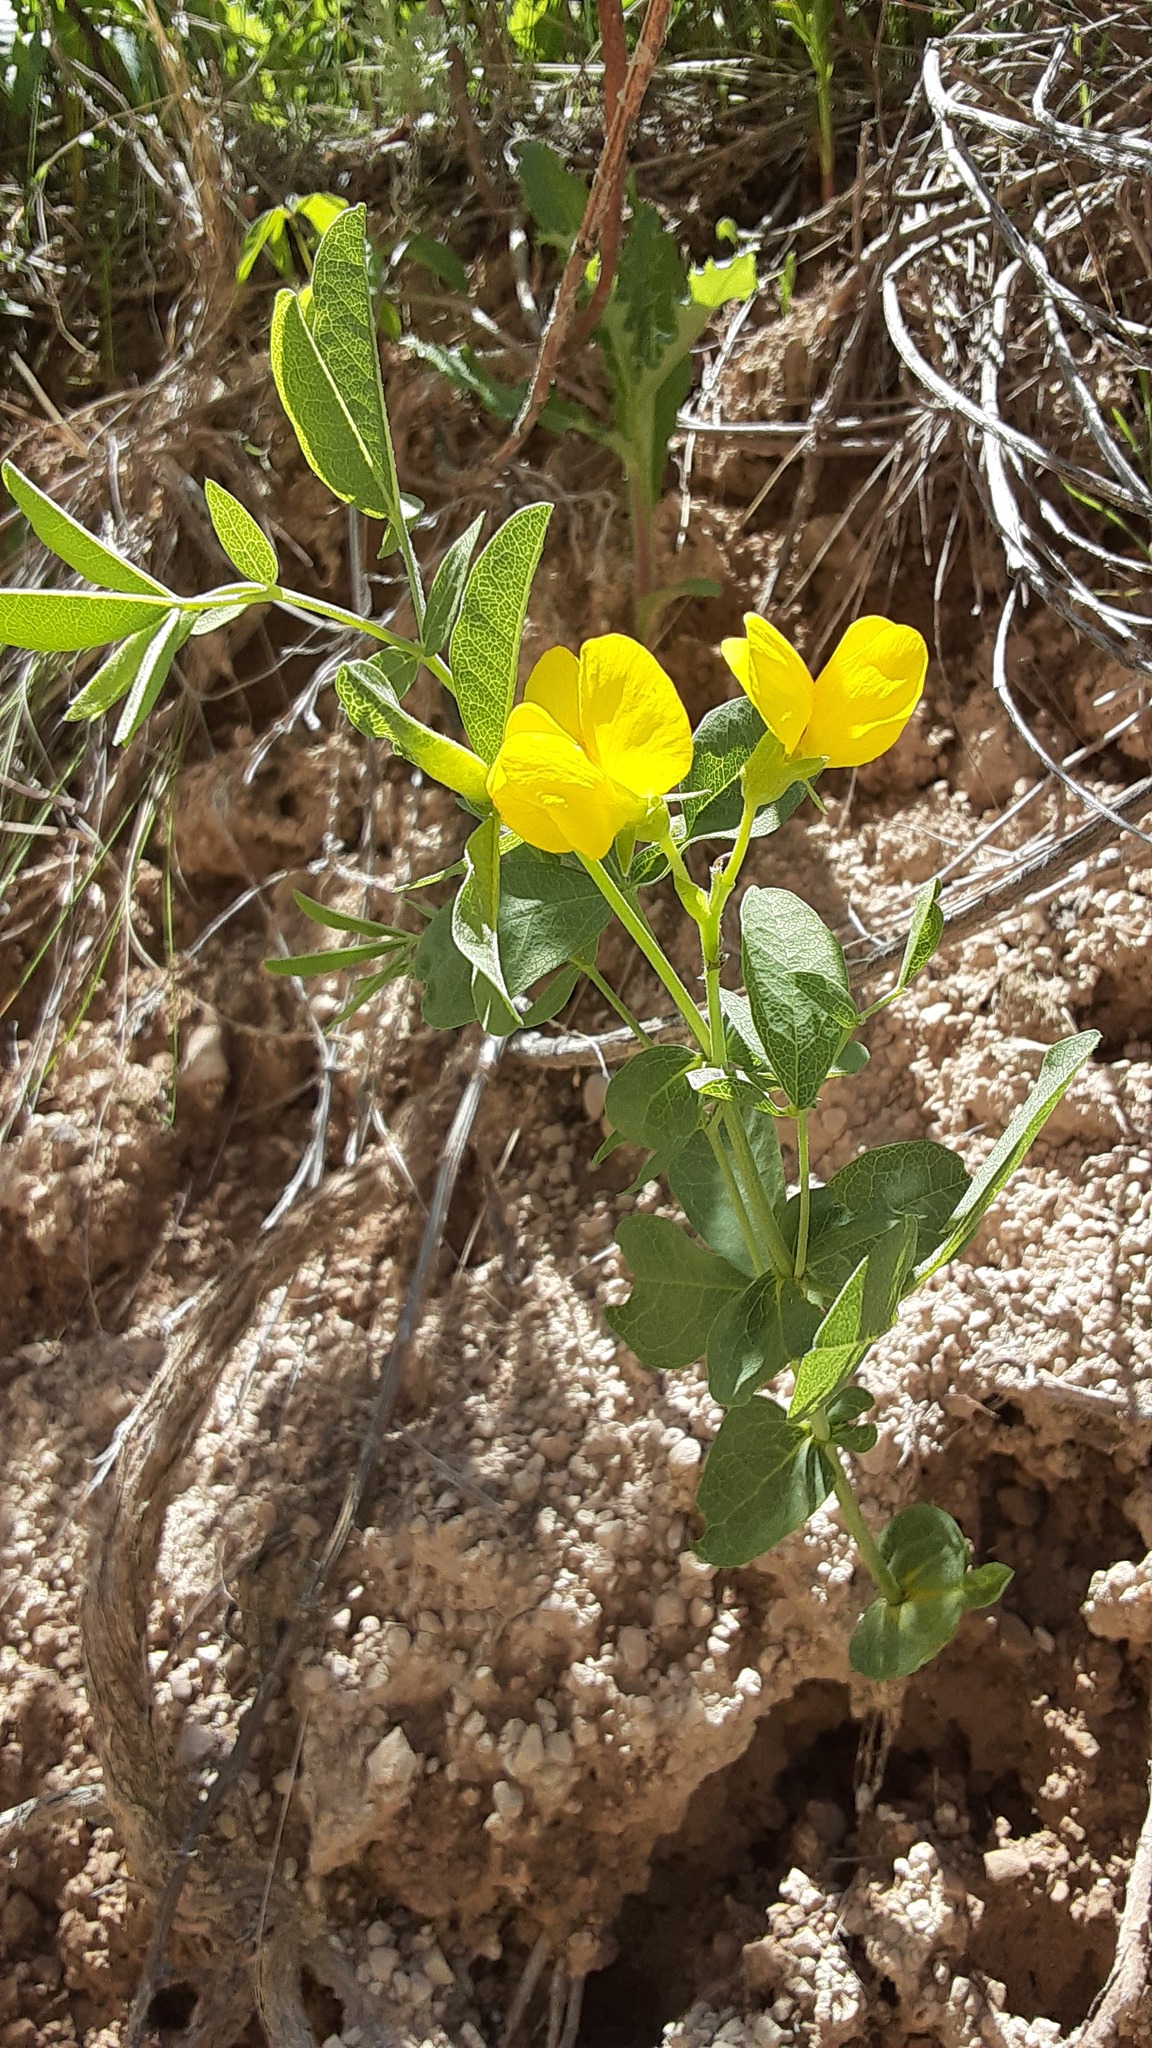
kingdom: Plantae
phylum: Tracheophyta
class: Magnoliopsida
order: Fabales
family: Fabaceae
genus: Thermopsis
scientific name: Thermopsis rhombifolia
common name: Circle-pod-pea
